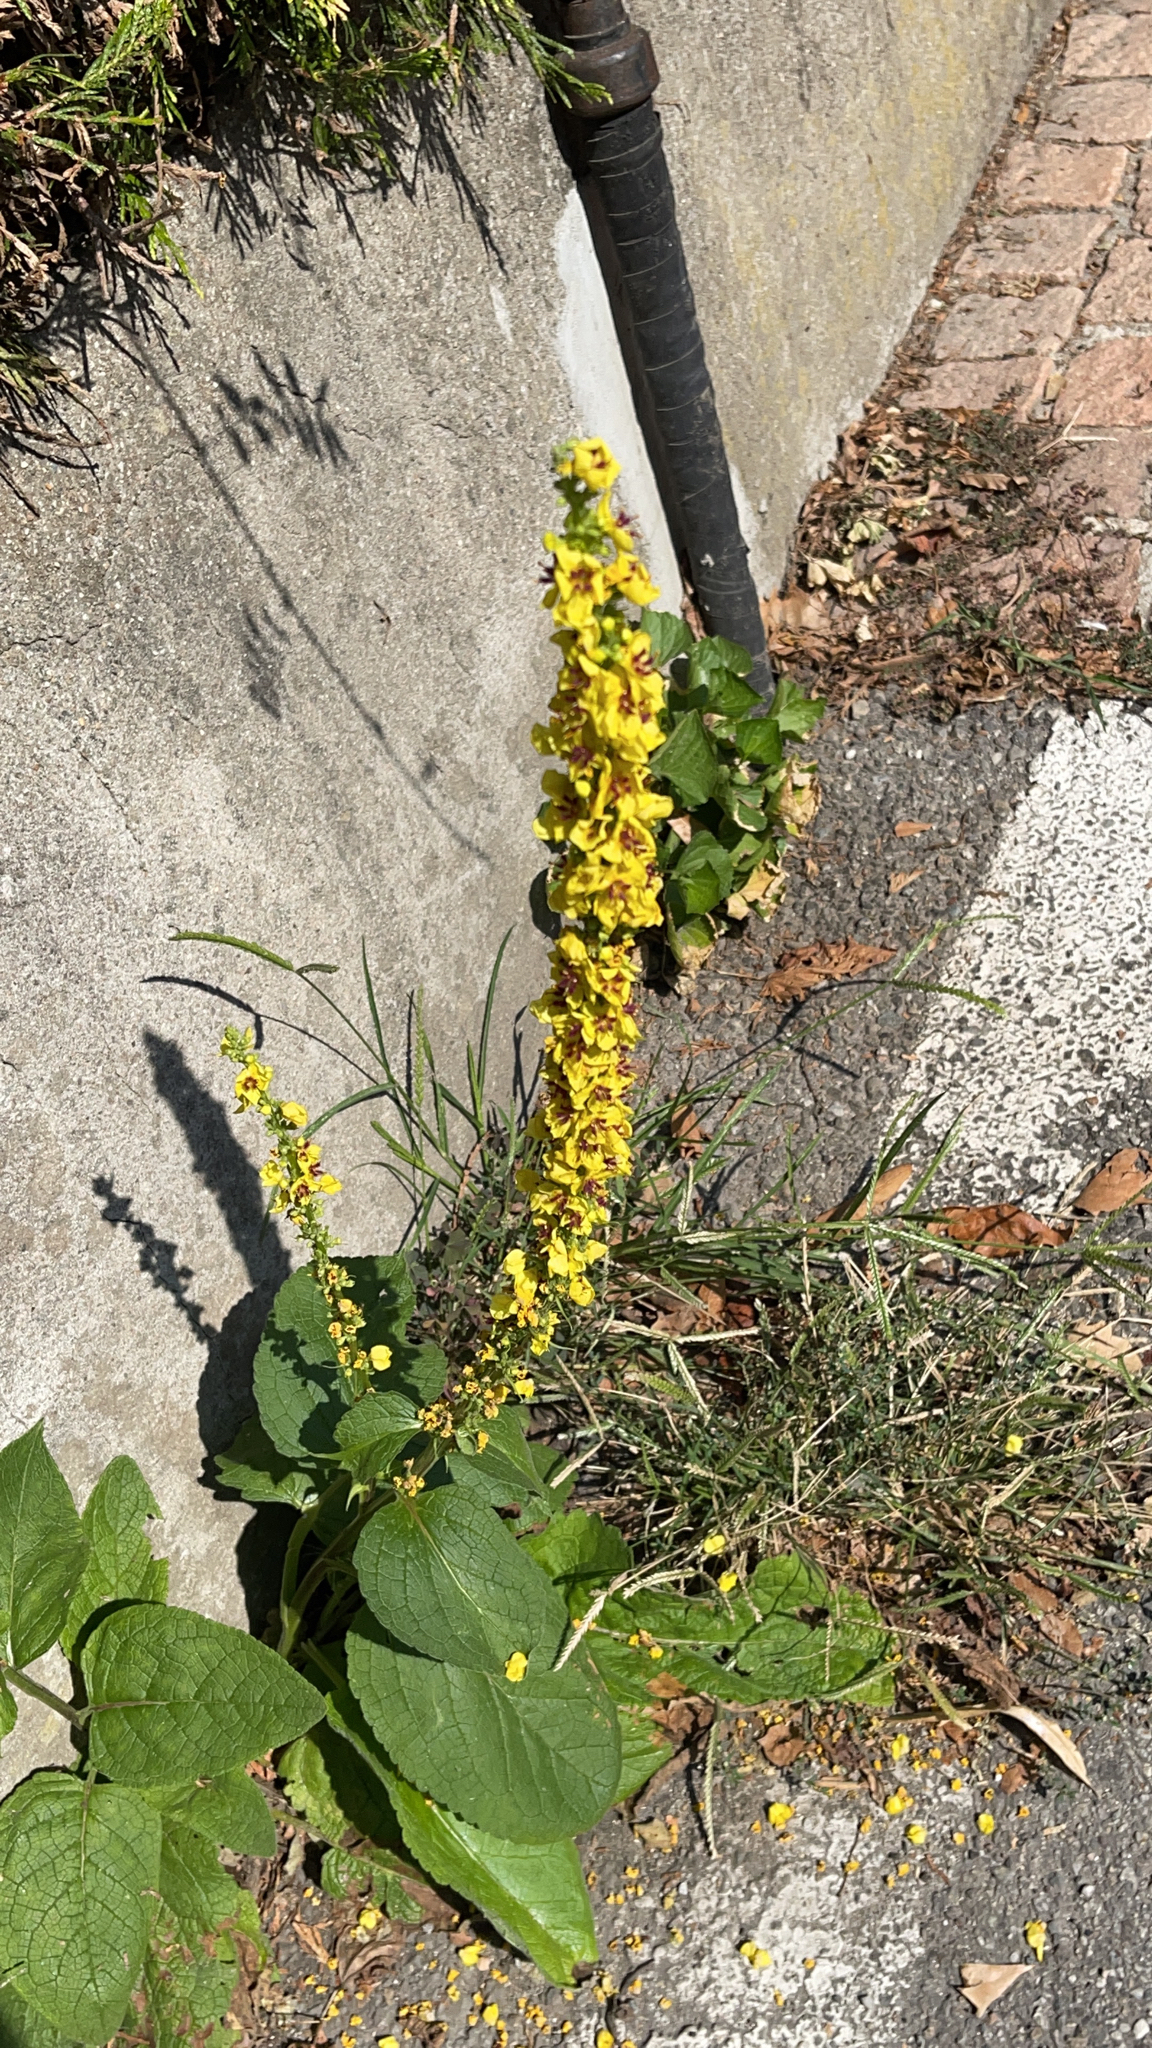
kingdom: Plantae
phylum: Tracheophyta
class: Magnoliopsida
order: Lamiales
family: Scrophulariaceae
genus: Verbascum
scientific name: Verbascum nigrum
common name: Dark mullein
